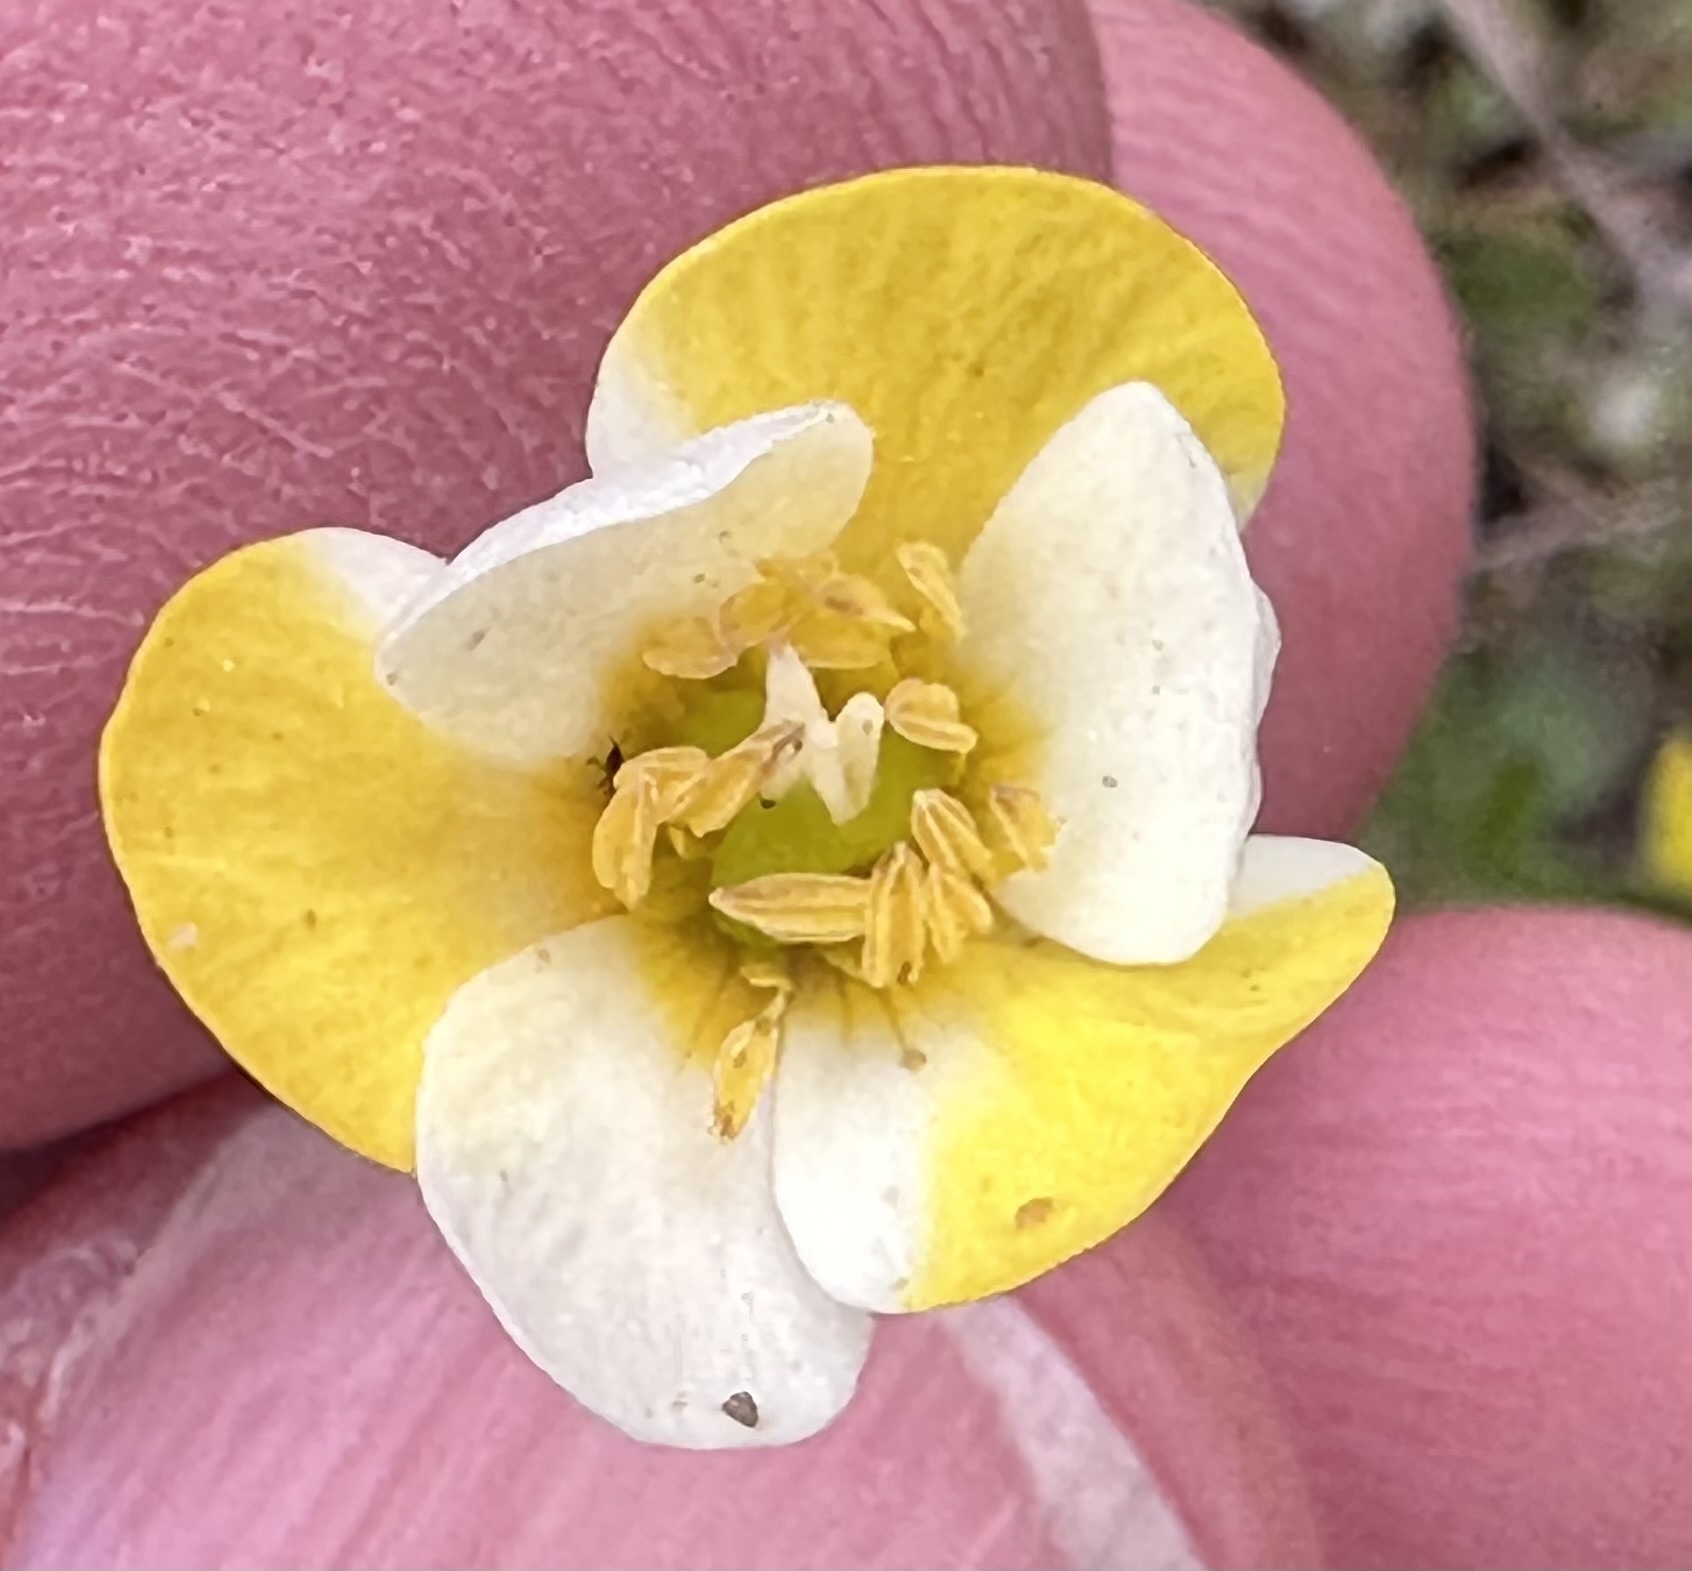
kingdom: Plantae
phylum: Tracheophyta
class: Magnoliopsida
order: Ranunculales
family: Papaveraceae
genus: Platystigma
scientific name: Platystigma lineare
